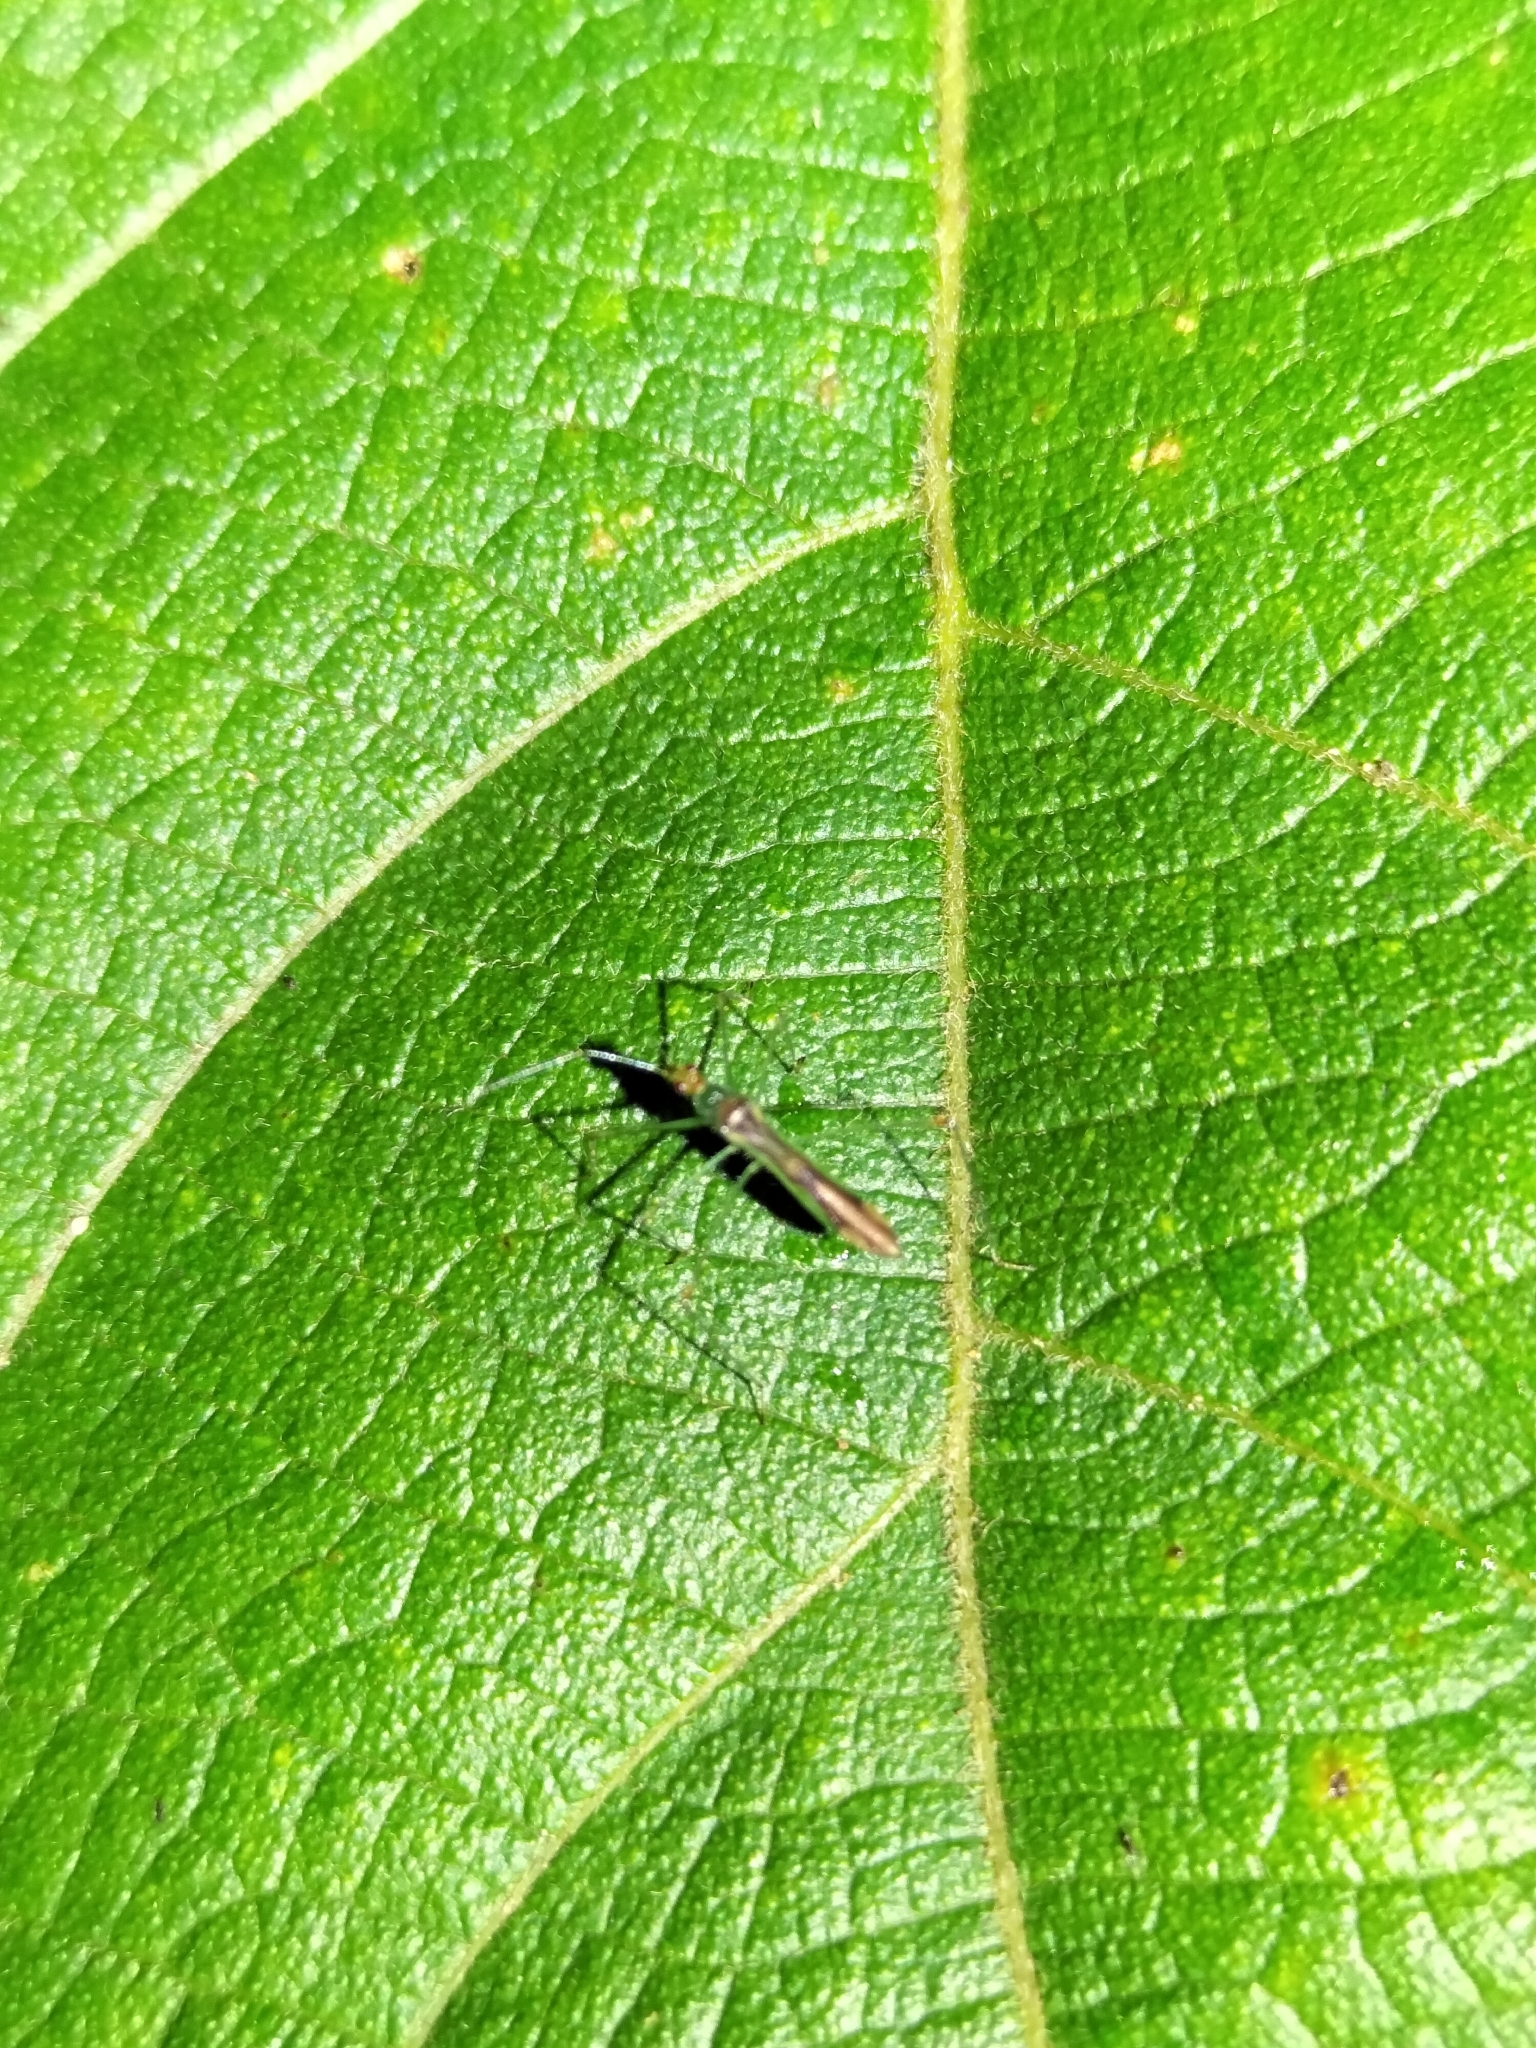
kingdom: Animalia
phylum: Arthropoda
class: Insecta
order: Hemiptera
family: Nabidae
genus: Arbela
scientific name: Arbela
